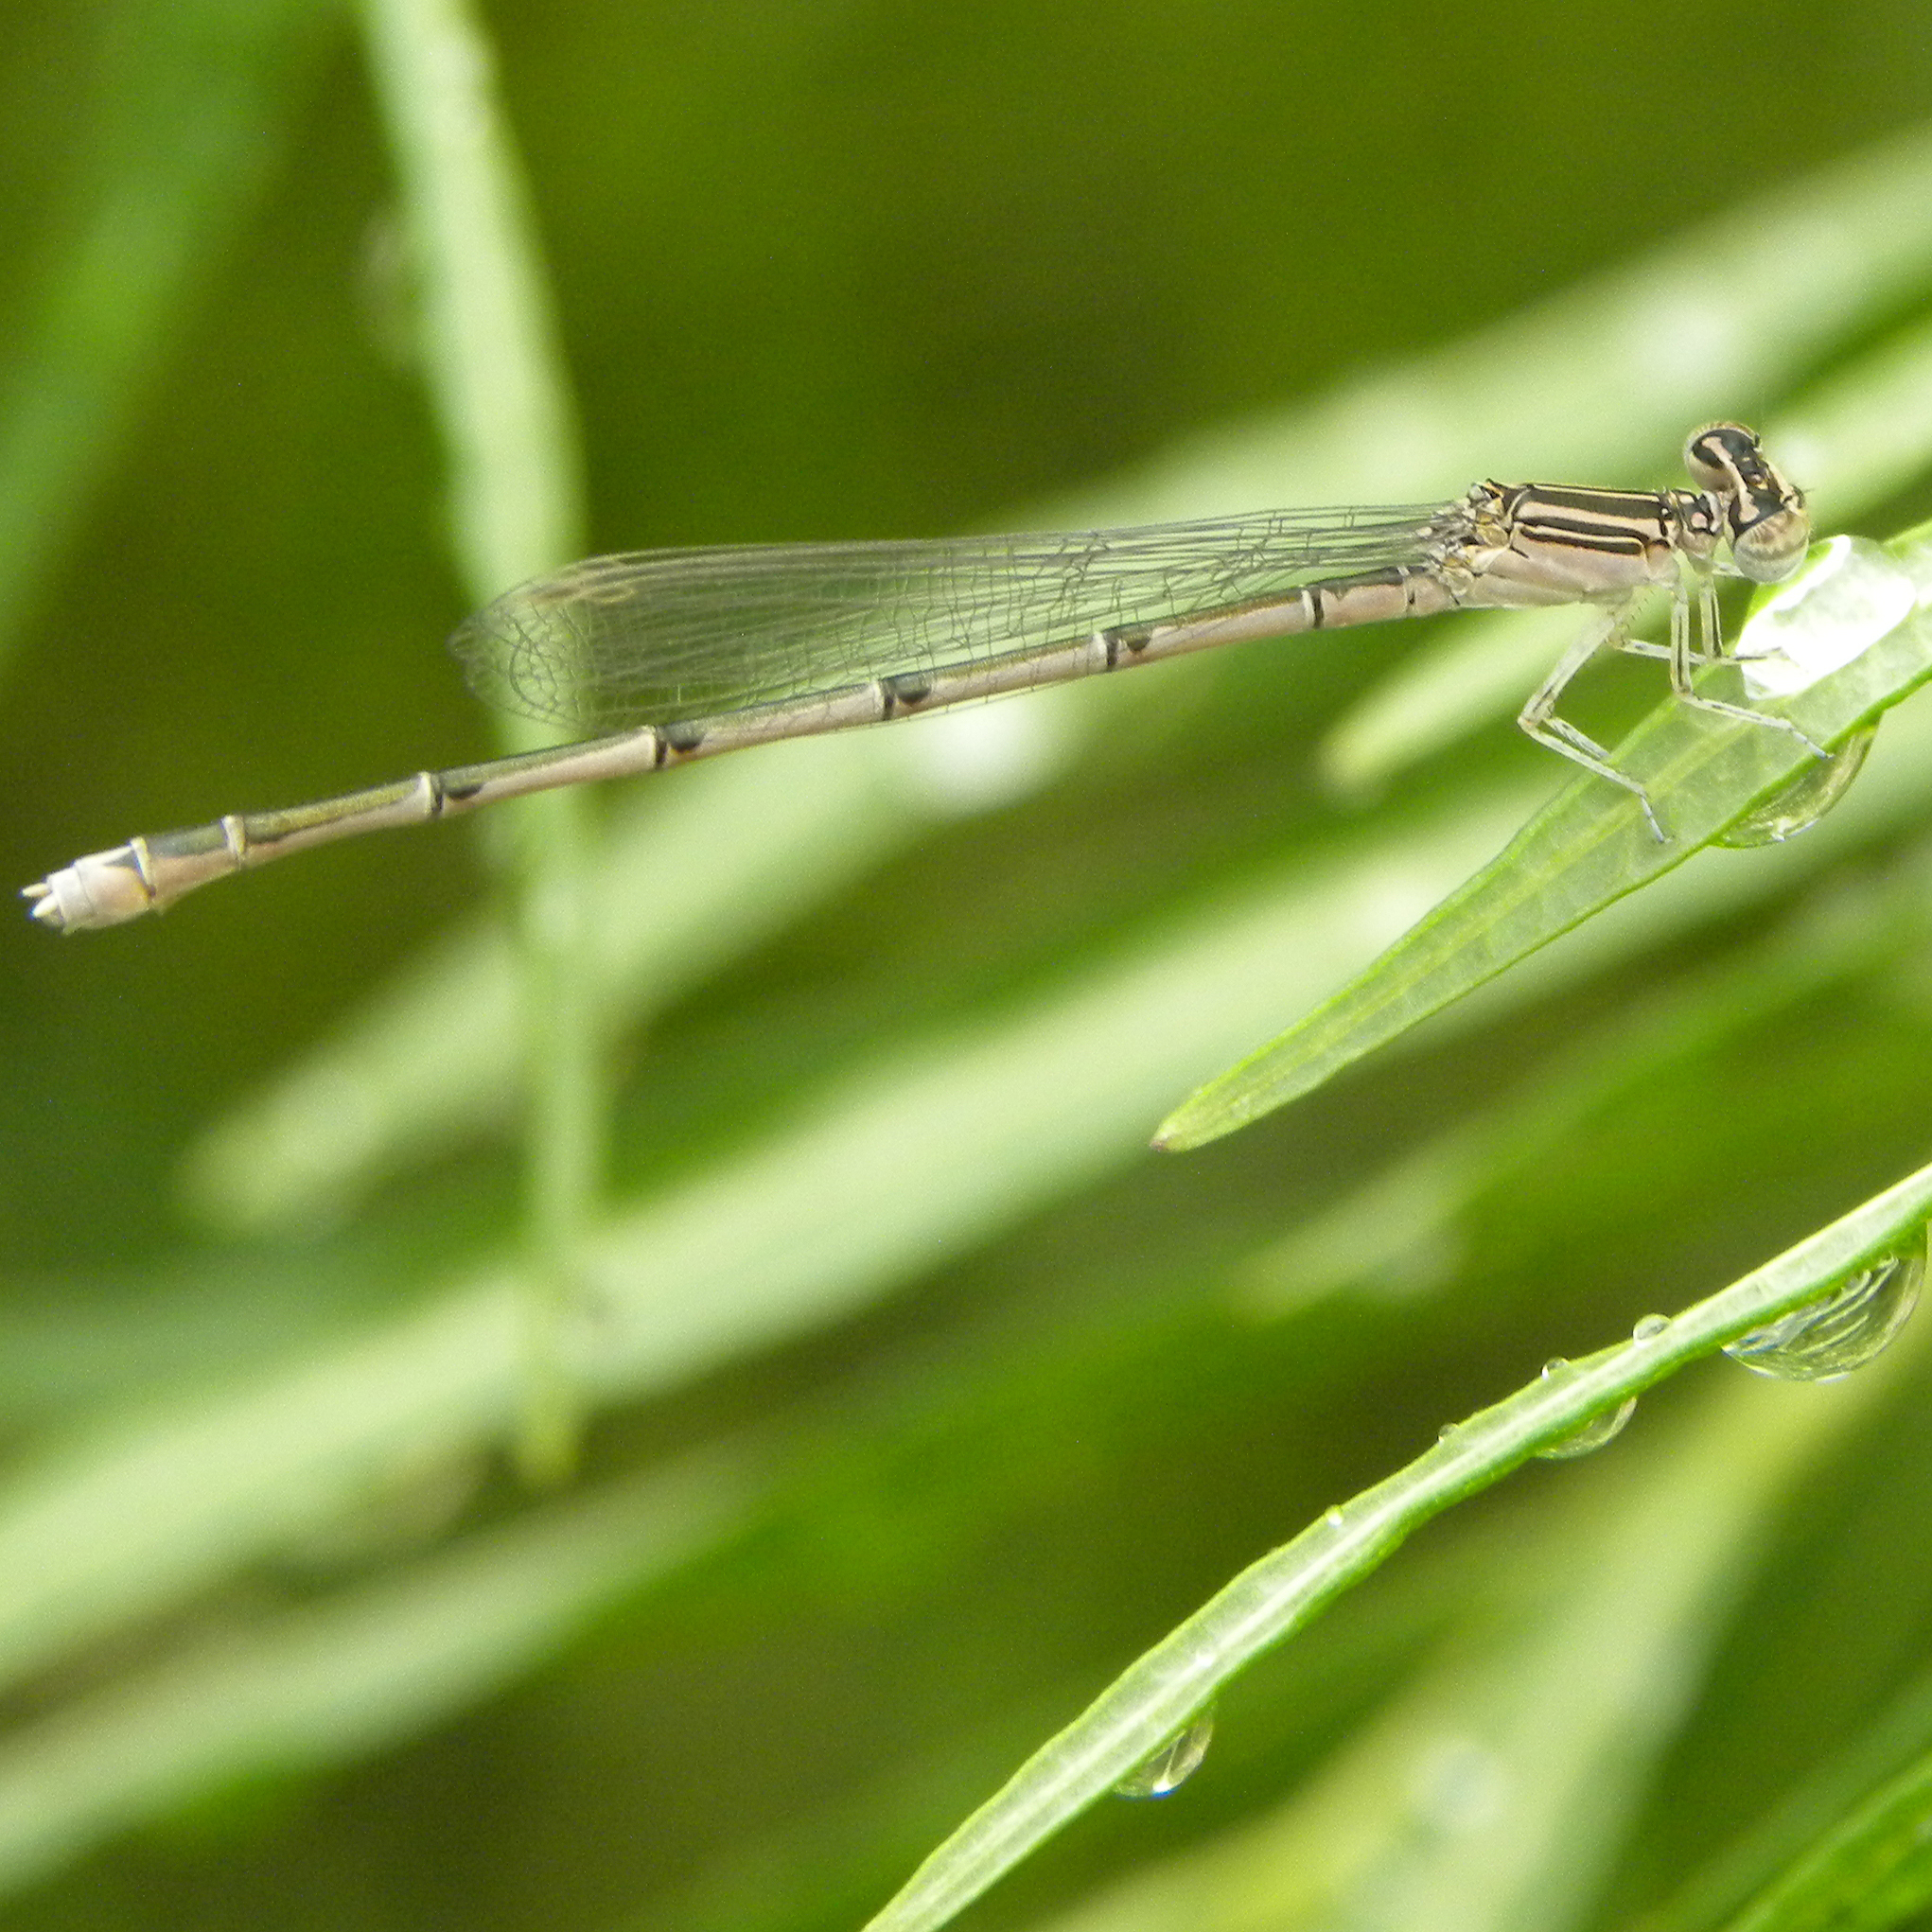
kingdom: Animalia
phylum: Arthropoda
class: Insecta
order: Odonata
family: Coenagrionidae
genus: Enallagma
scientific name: Enallagma basidens
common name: Double-striped bluet
